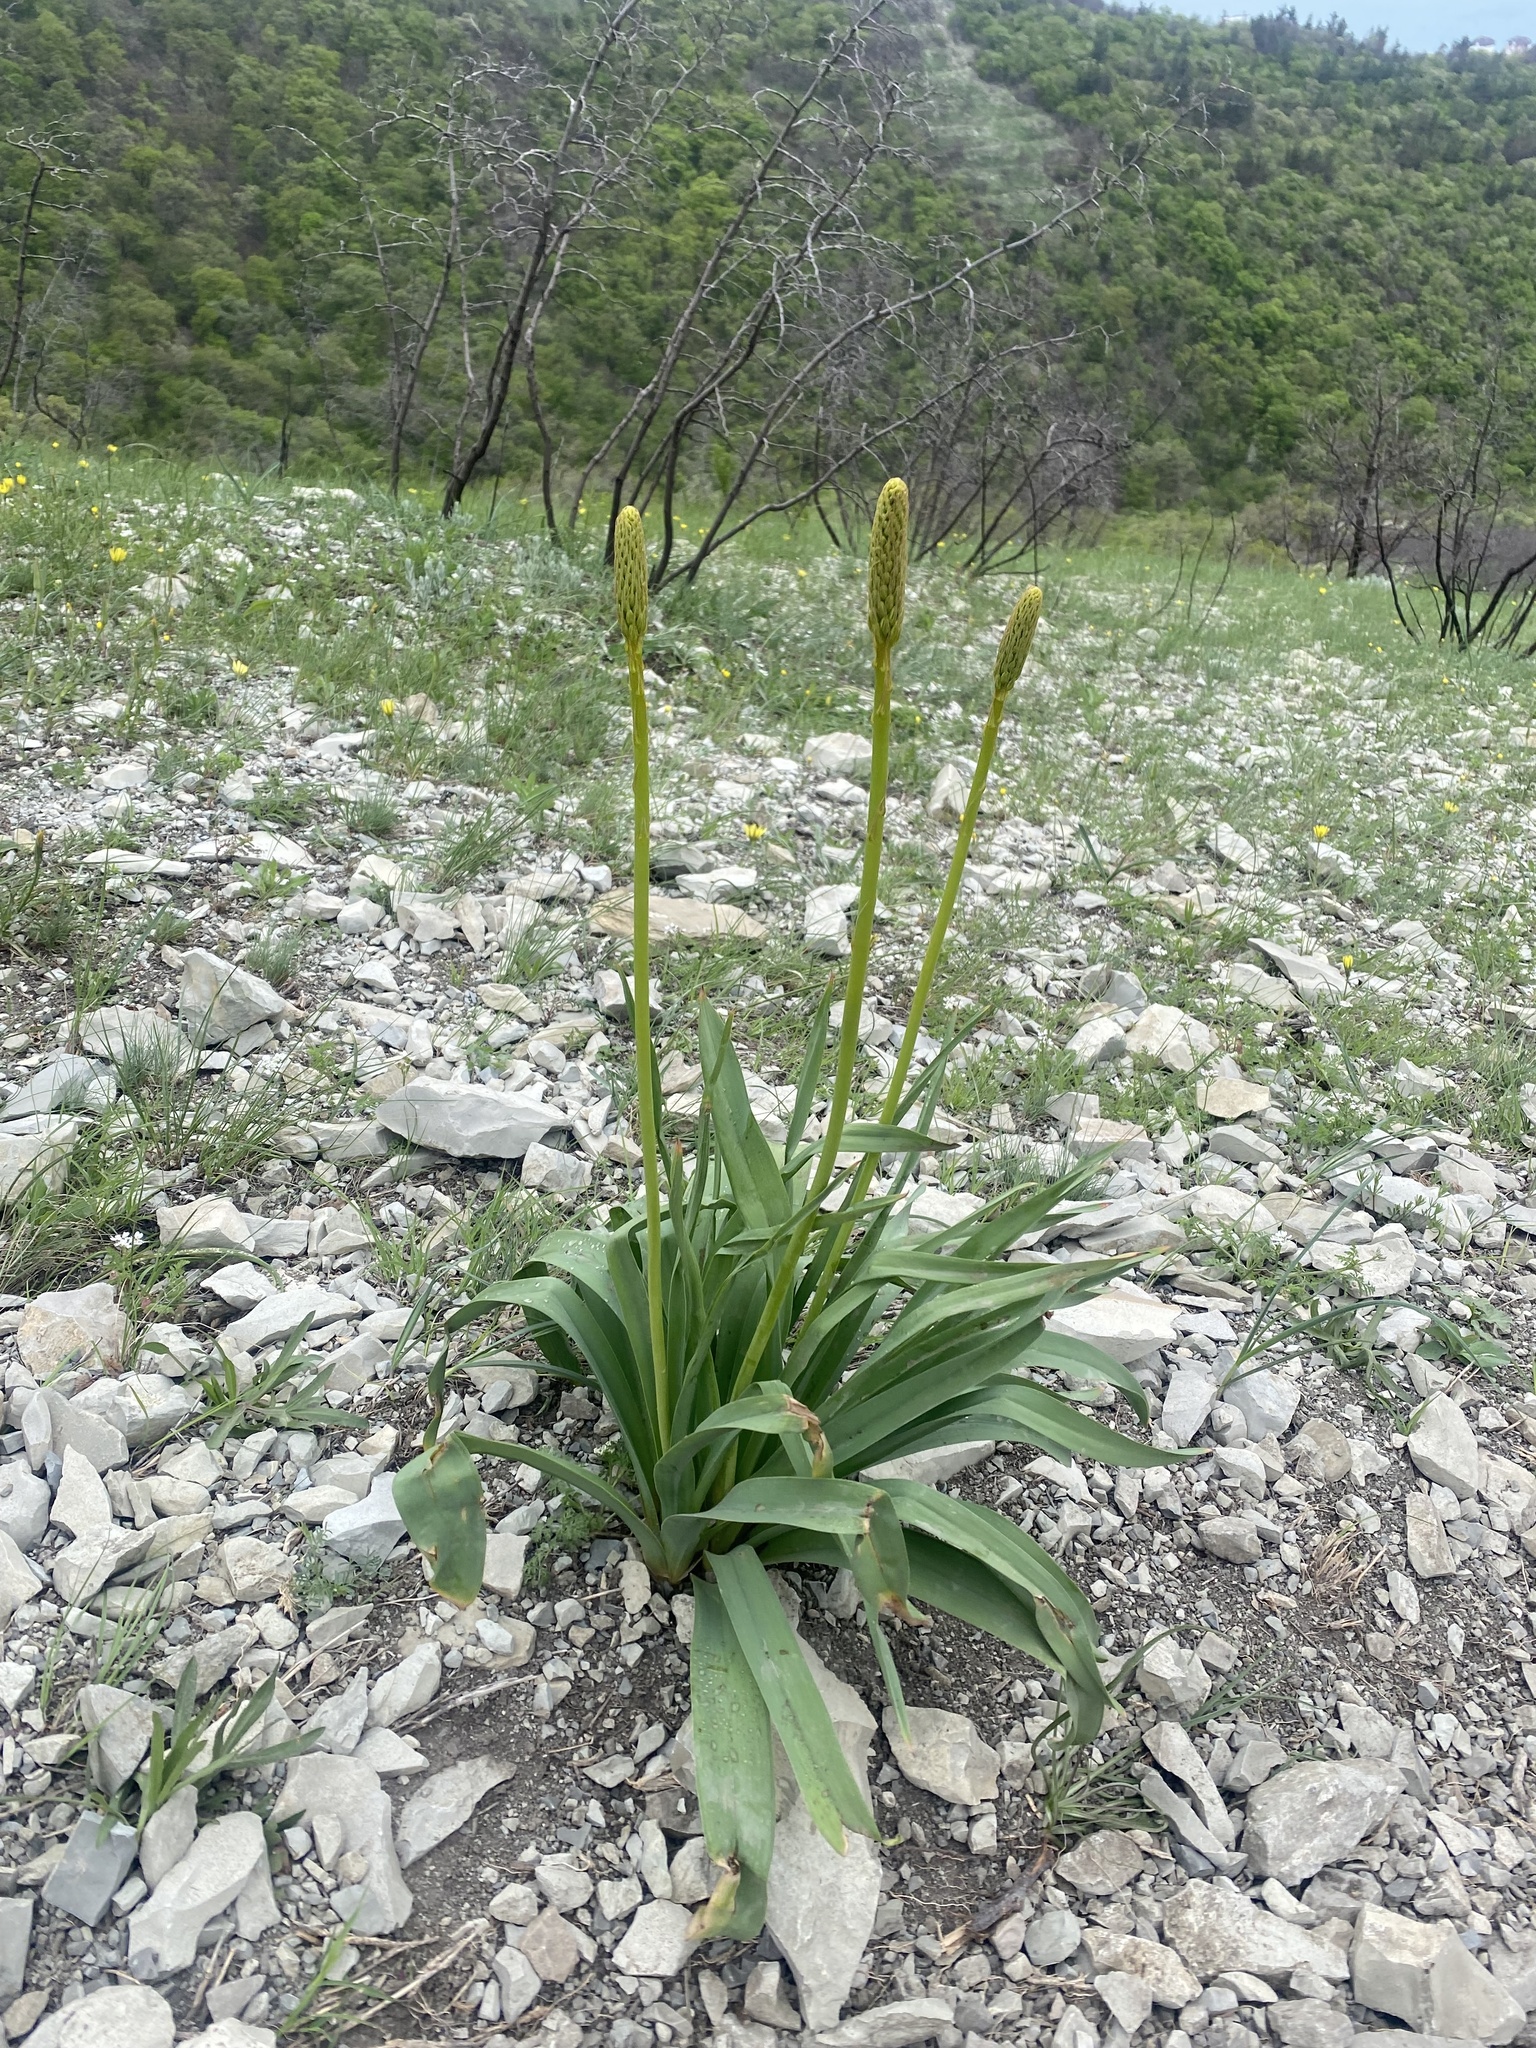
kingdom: Plantae
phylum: Tracheophyta
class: Liliopsida
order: Asparagales
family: Asphodelaceae
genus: Eremurus
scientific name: Eremurus spectabilis
